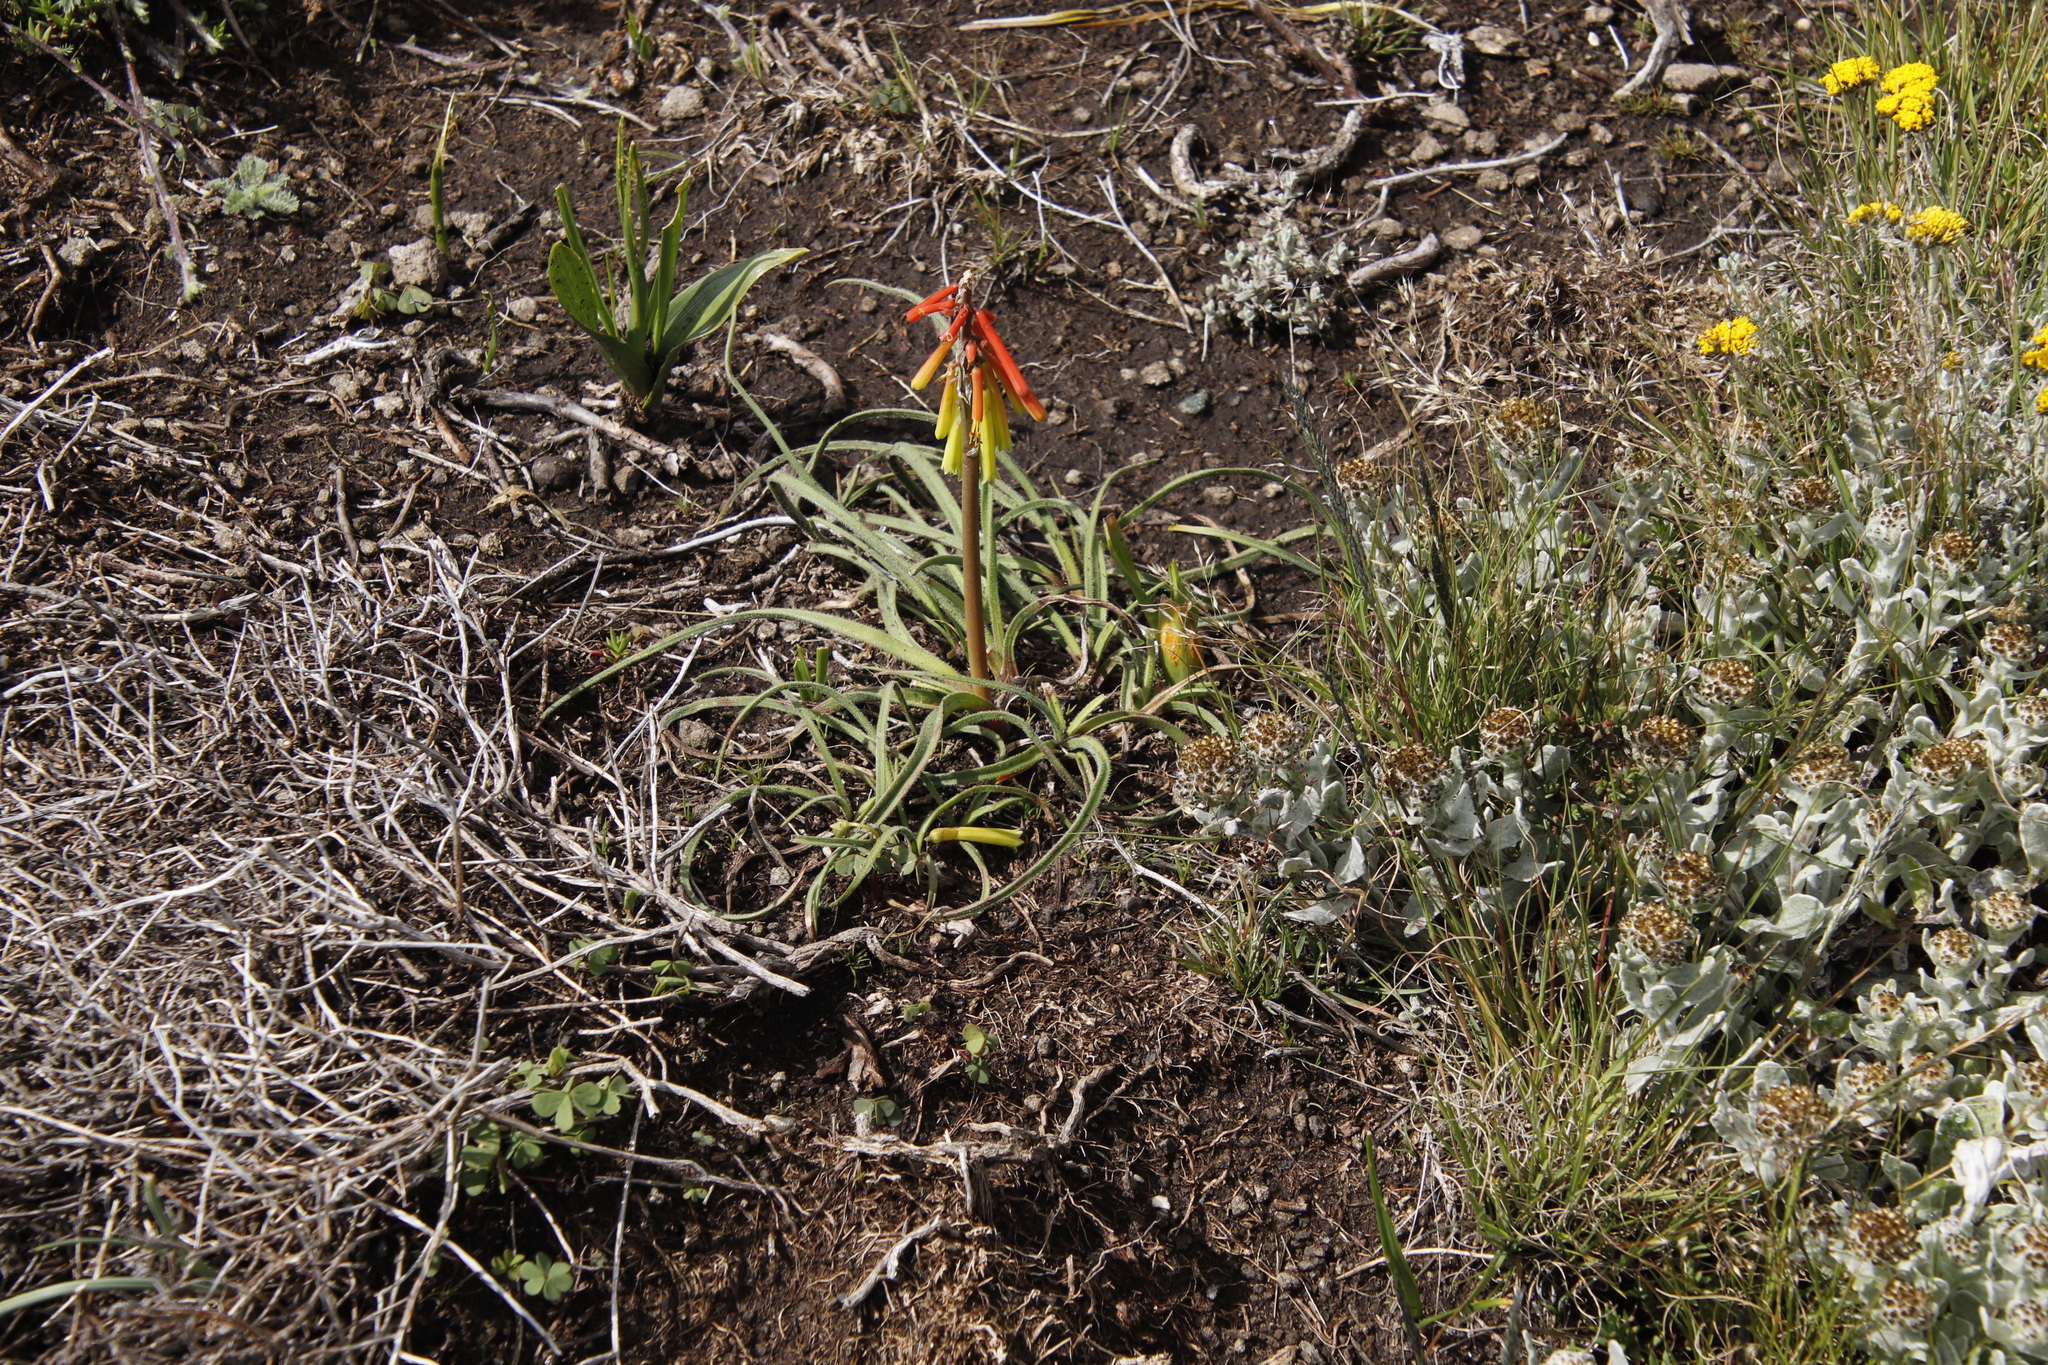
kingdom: Plantae
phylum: Tracheophyta
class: Liliopsida
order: Asparagales
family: Asphodelaceae
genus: Kniphofia
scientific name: Kniphofia hirsuta
